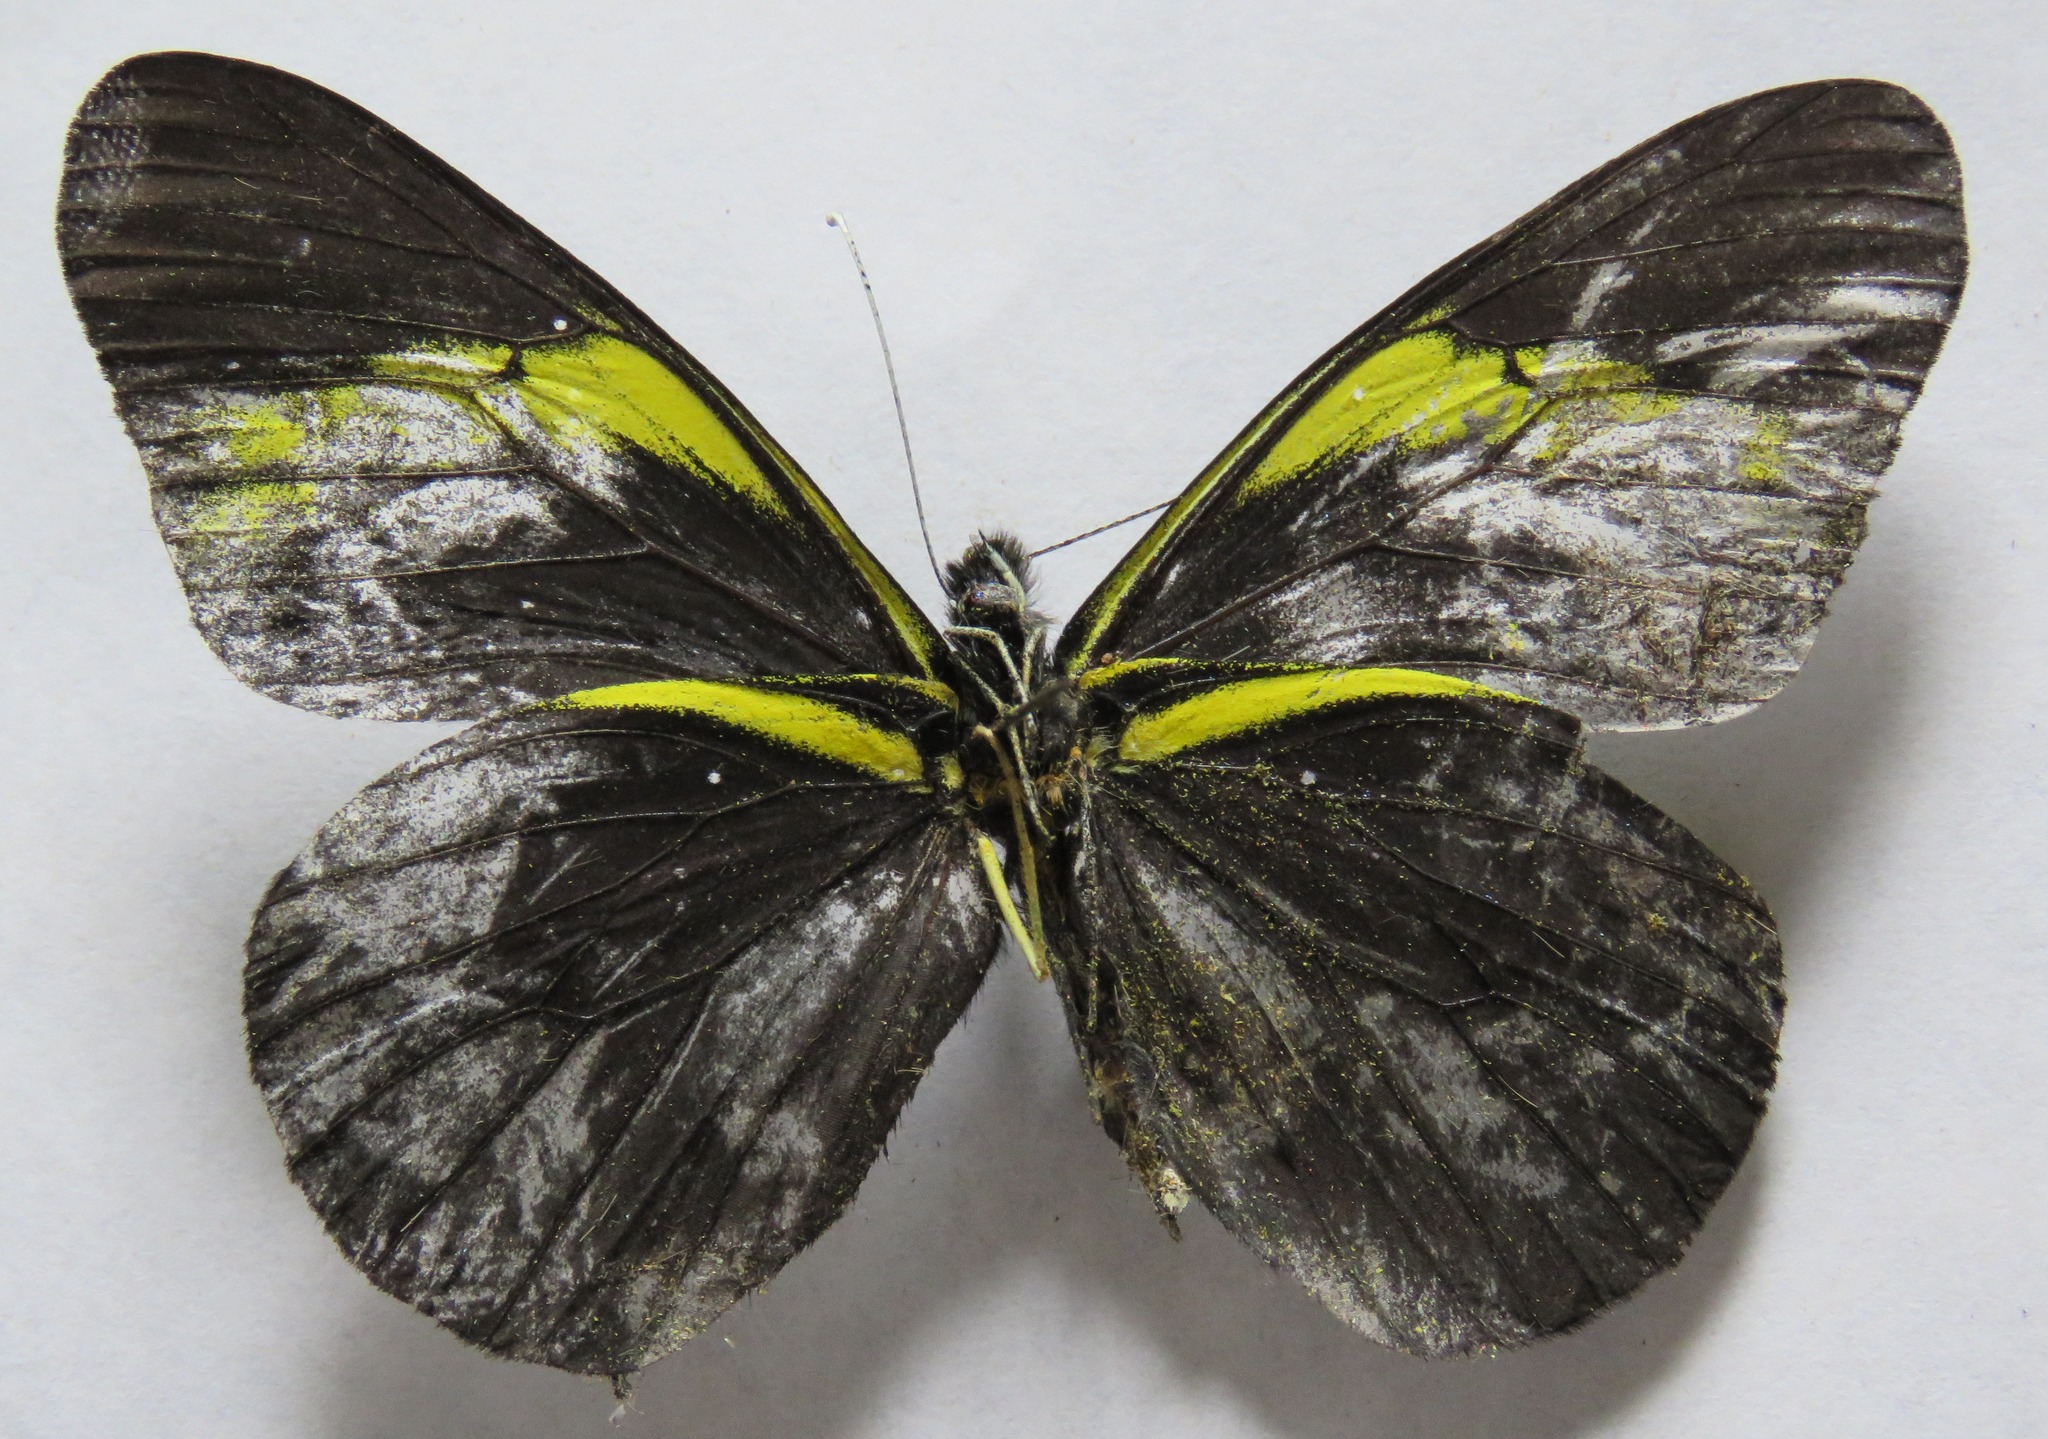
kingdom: Animalia
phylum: Arthropoda
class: Insecta
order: Lepidoptera
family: Pieridae
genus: Pereute
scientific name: Pereute charops
